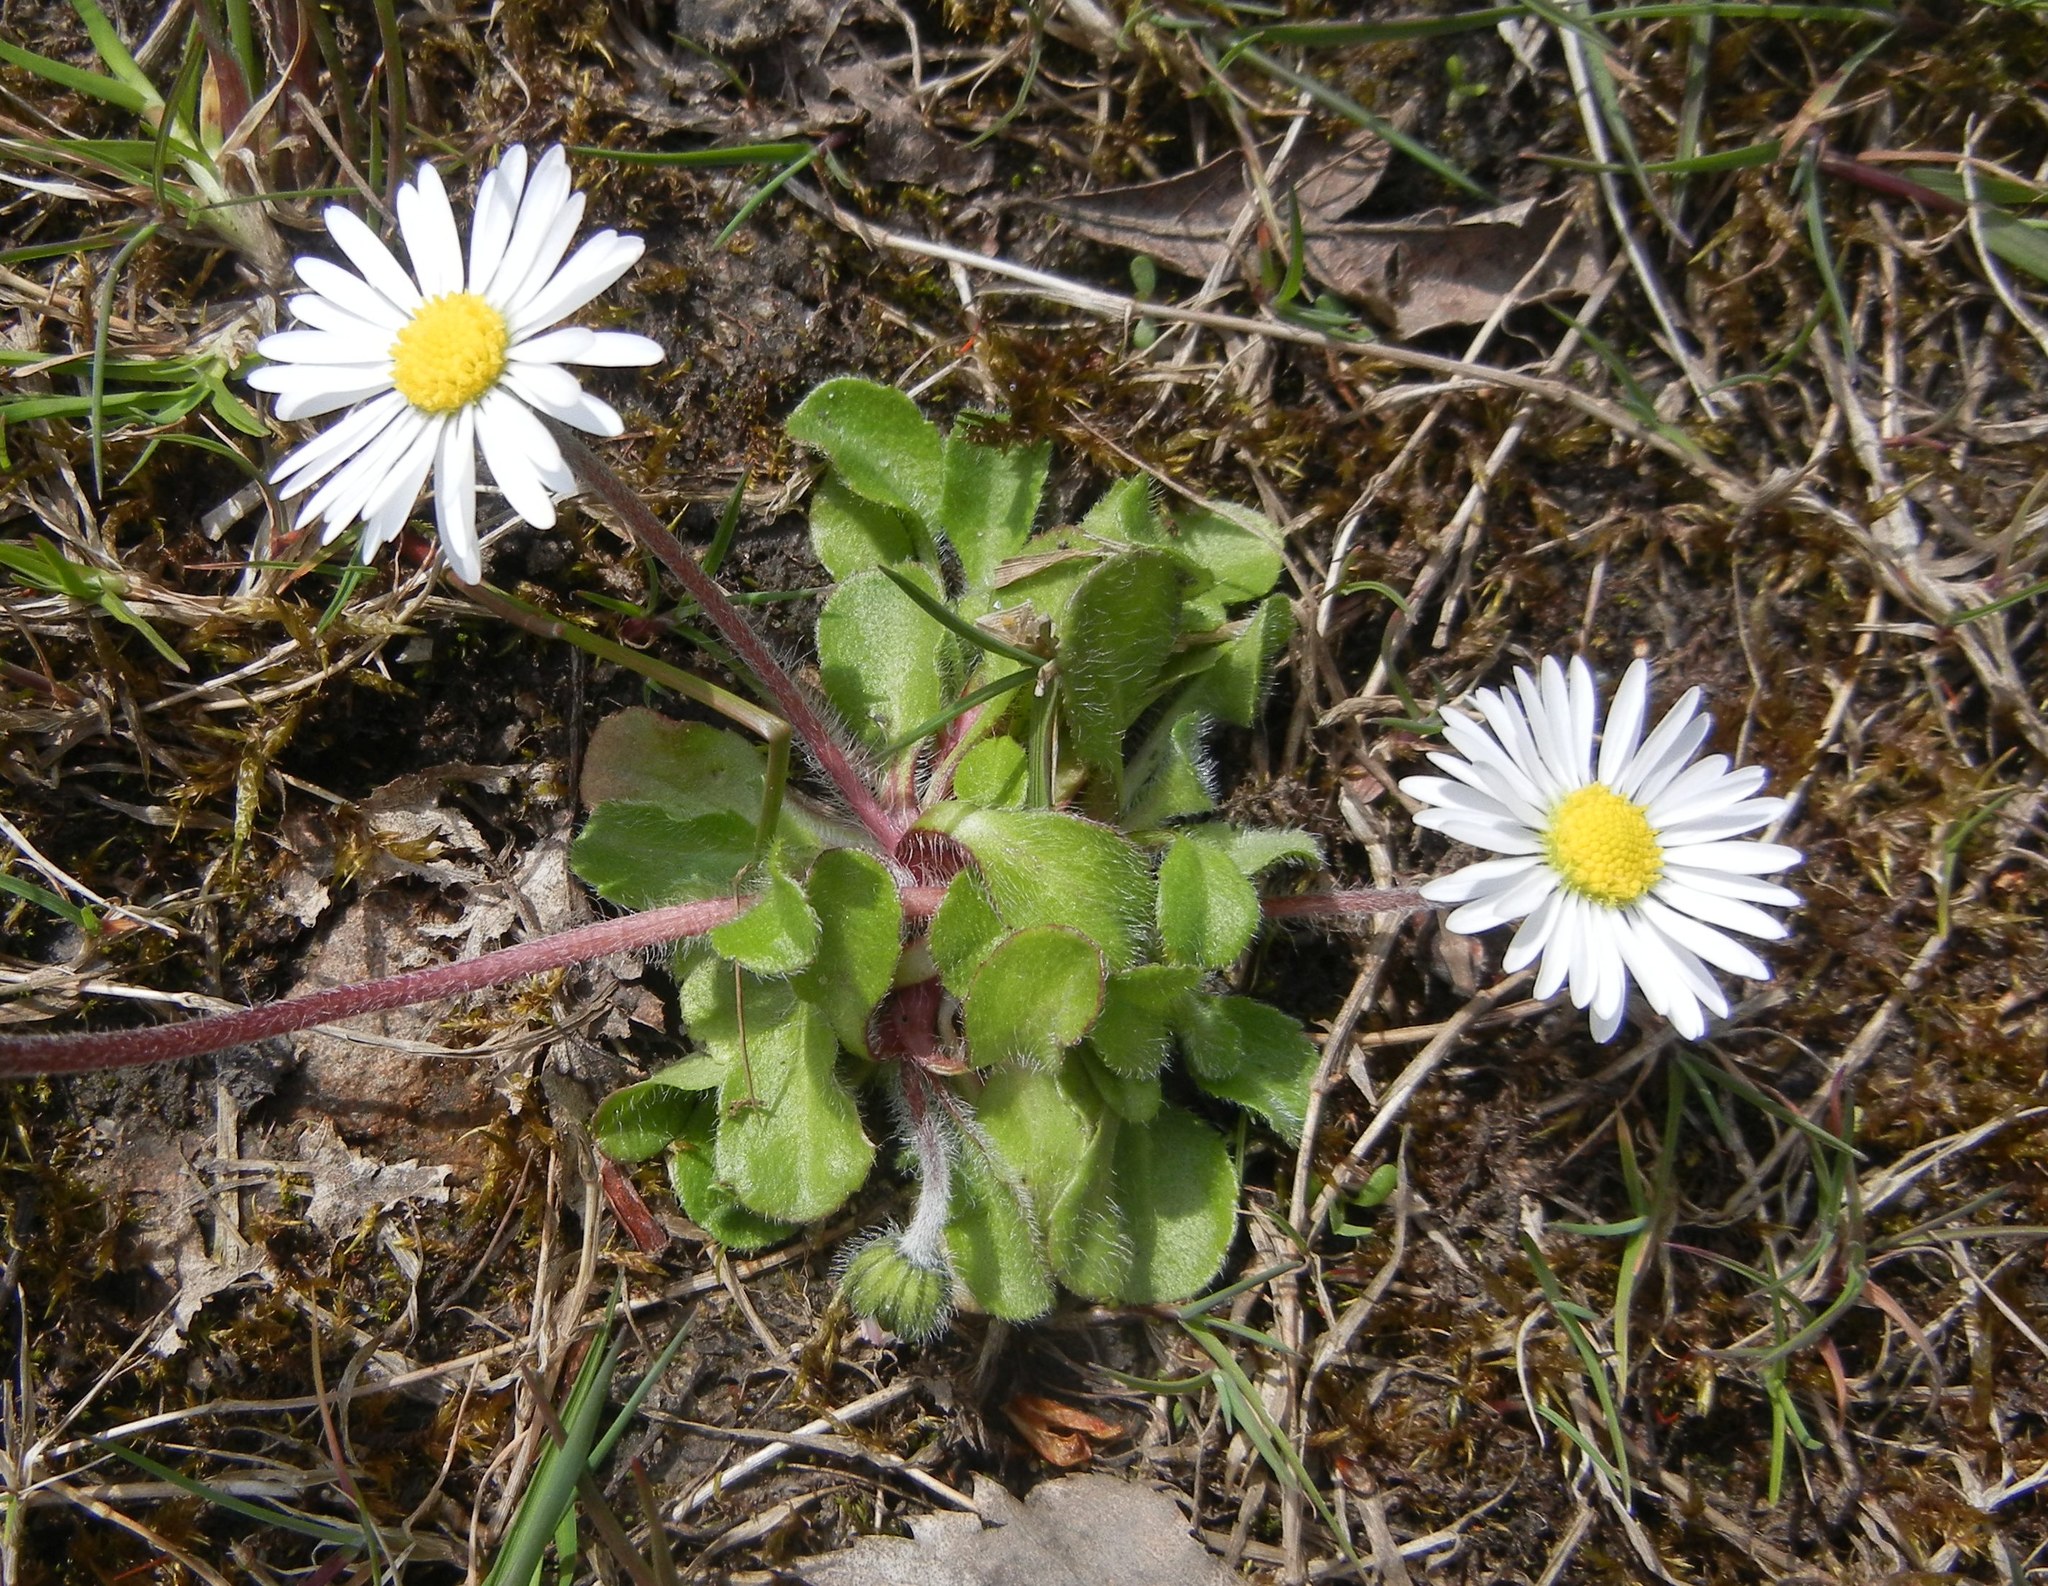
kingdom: Plantae
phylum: Tracheophyta
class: Magnoliopsida
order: Asterales
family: Asteraceae
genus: Bellis
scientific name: Bellis perennis
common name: Lawndaisy
